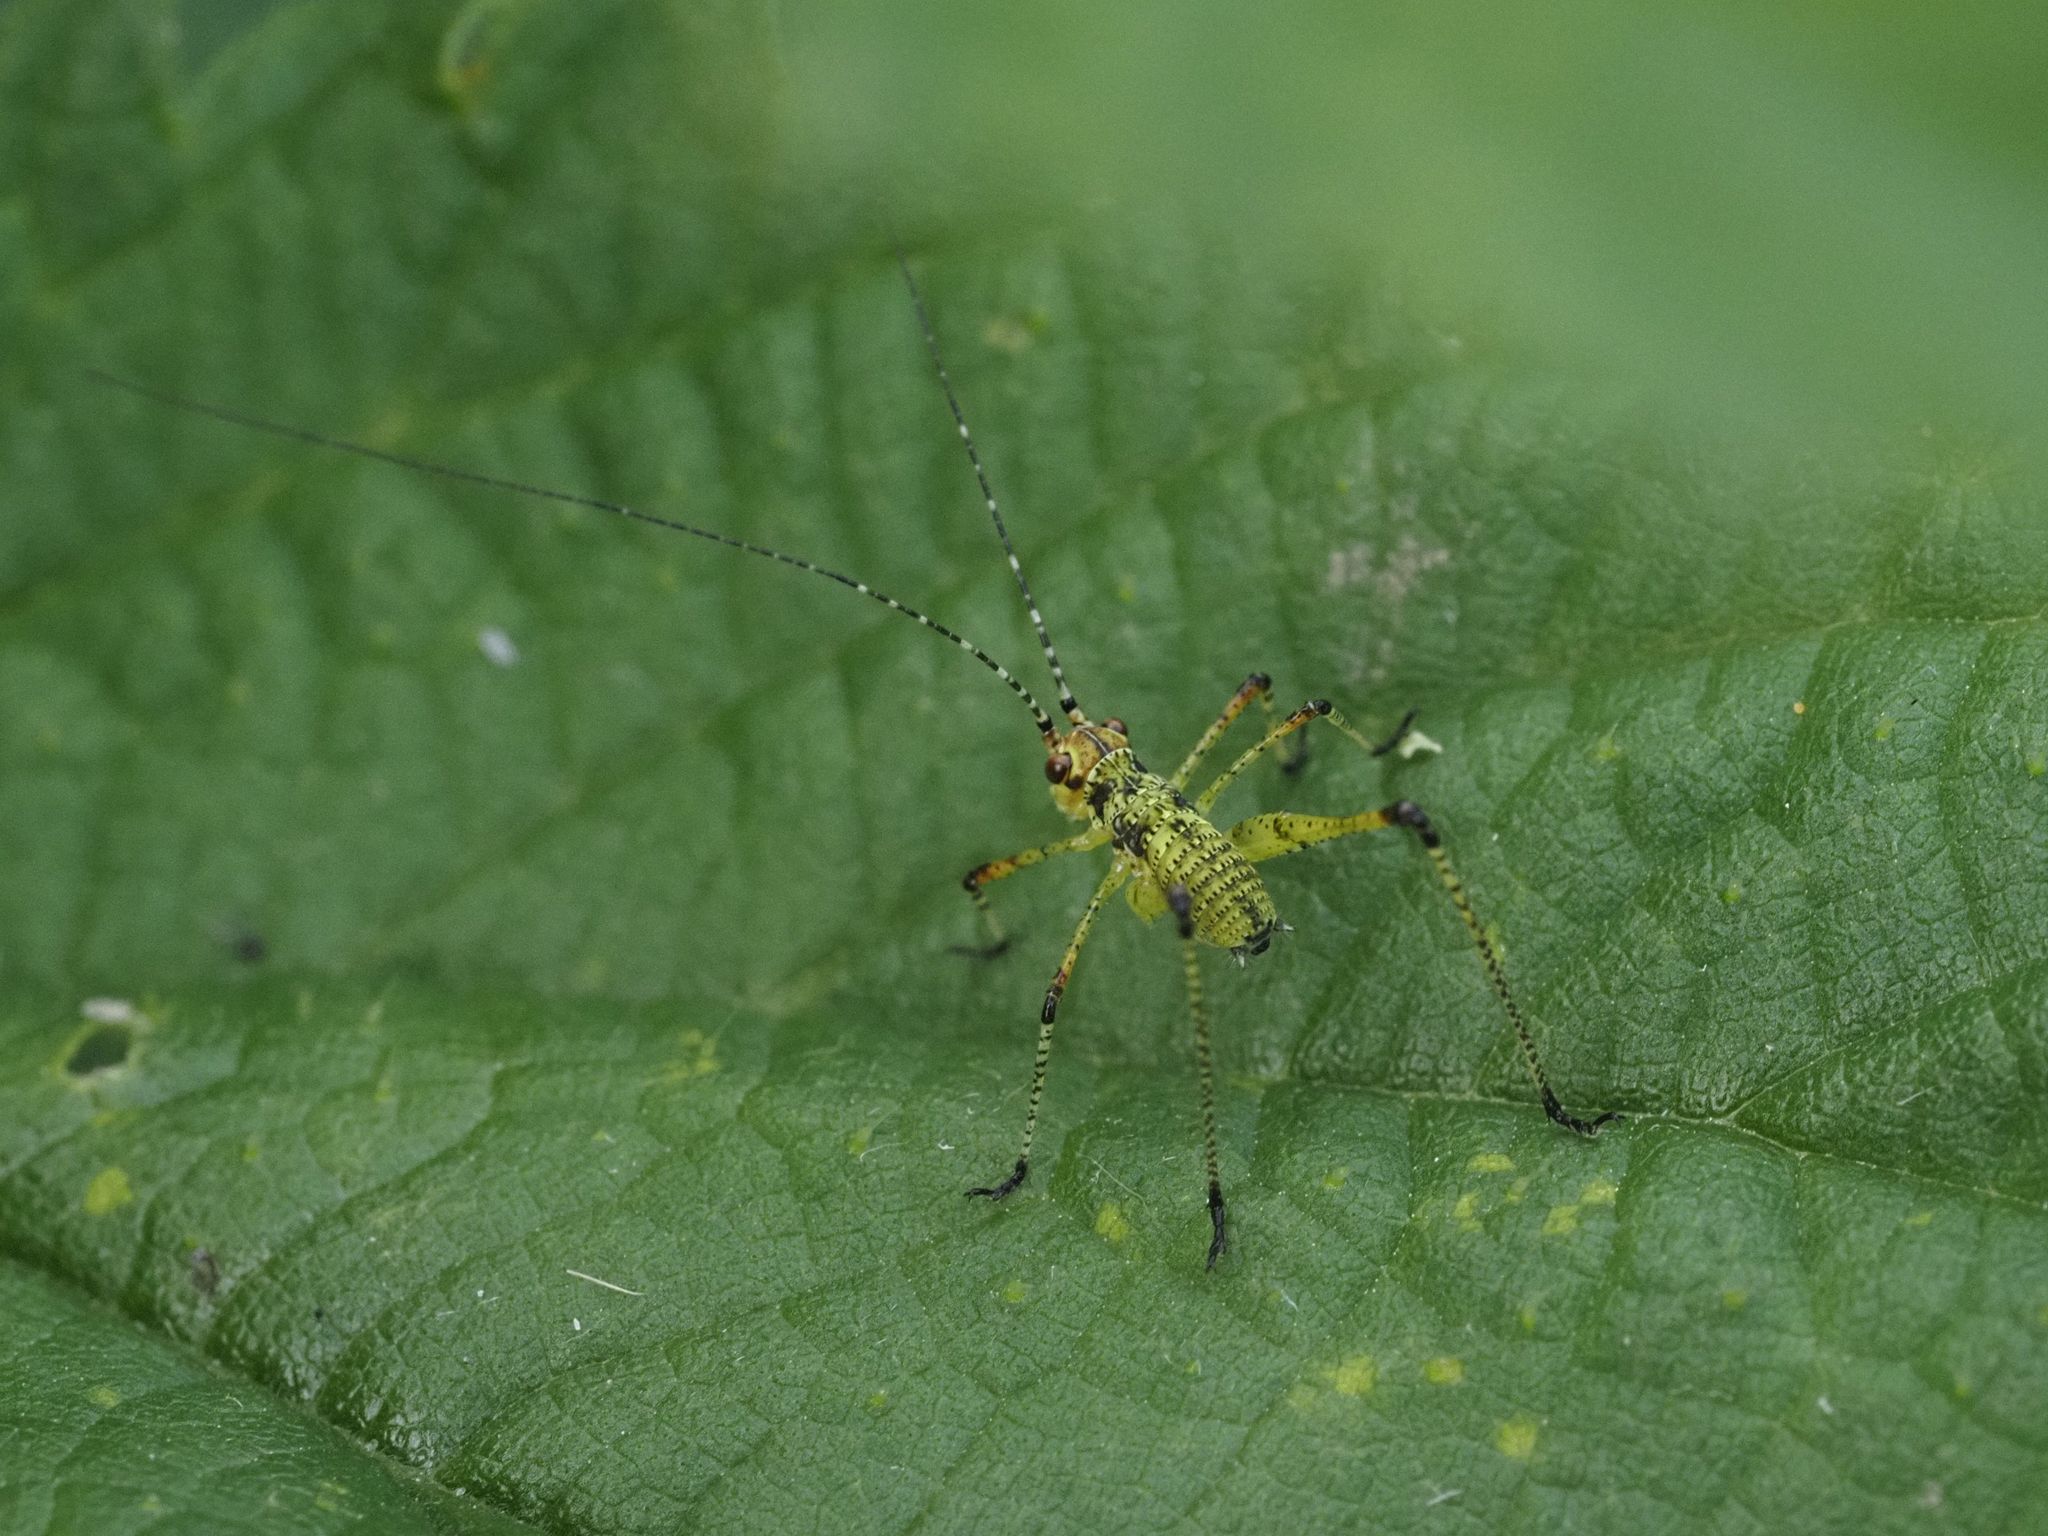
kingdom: Animalia
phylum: Arthropoda
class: Insecta
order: Orthoptera
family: Tettigoniidae
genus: Phaneroptera
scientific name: Phaneroptera nana
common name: Southern sickle bush-cricket
